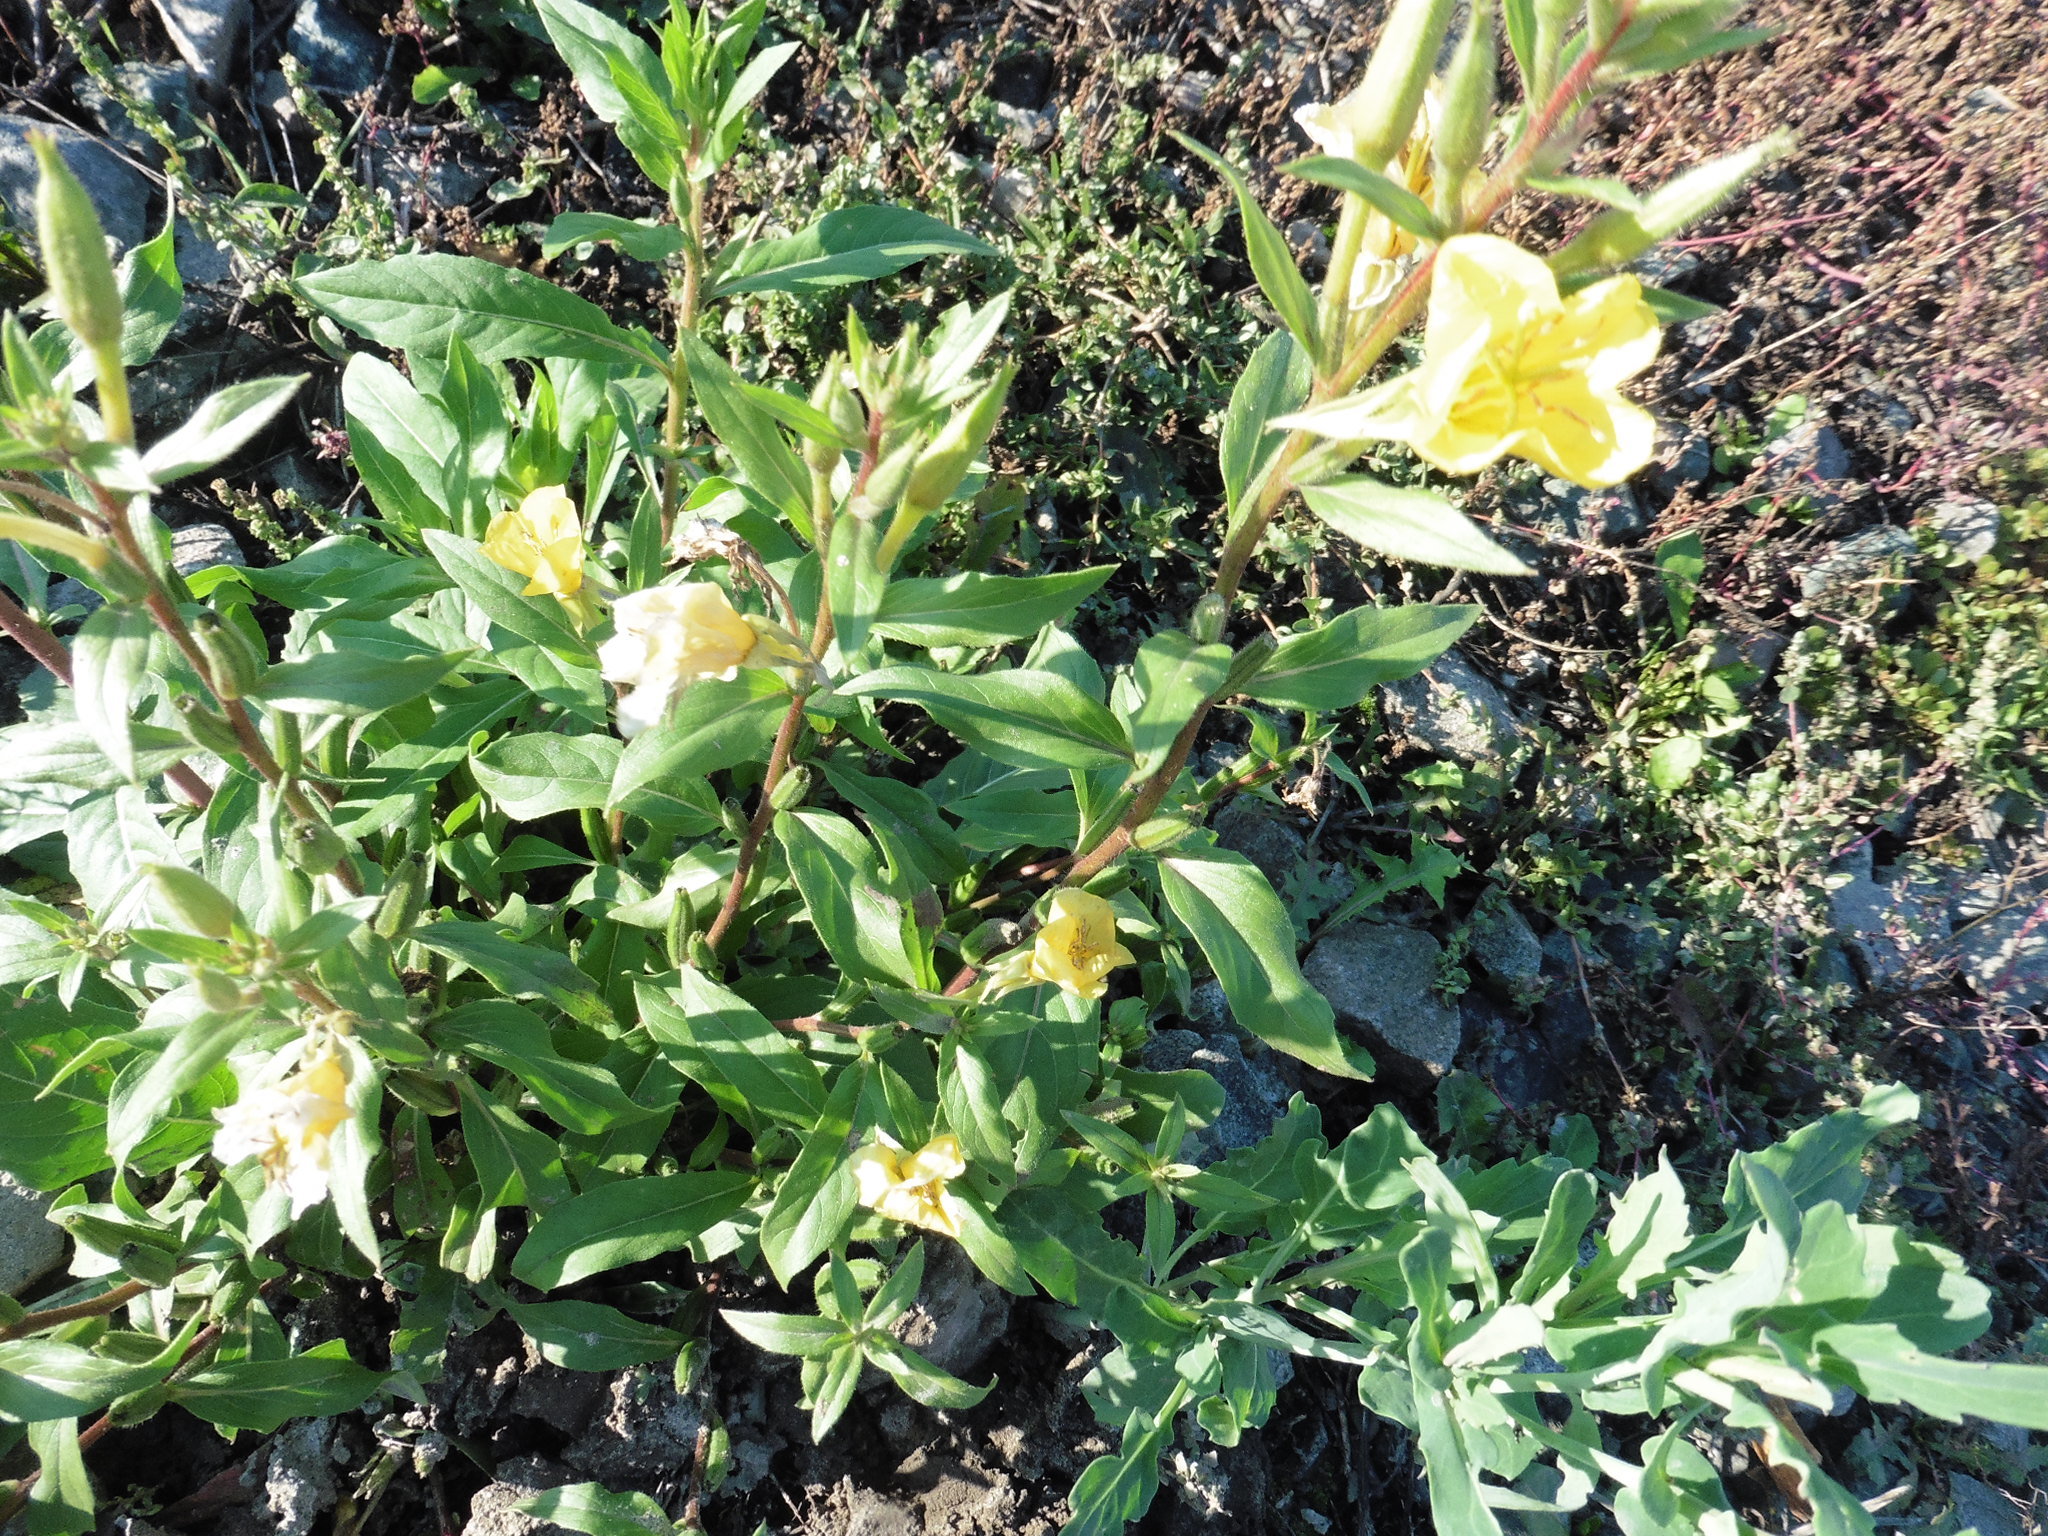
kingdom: Plantae
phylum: Tracheophyta
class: Magnoliopsida
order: Myrtales
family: Onagraceae
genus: Oenothera
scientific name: Oenothera rubricaulis
